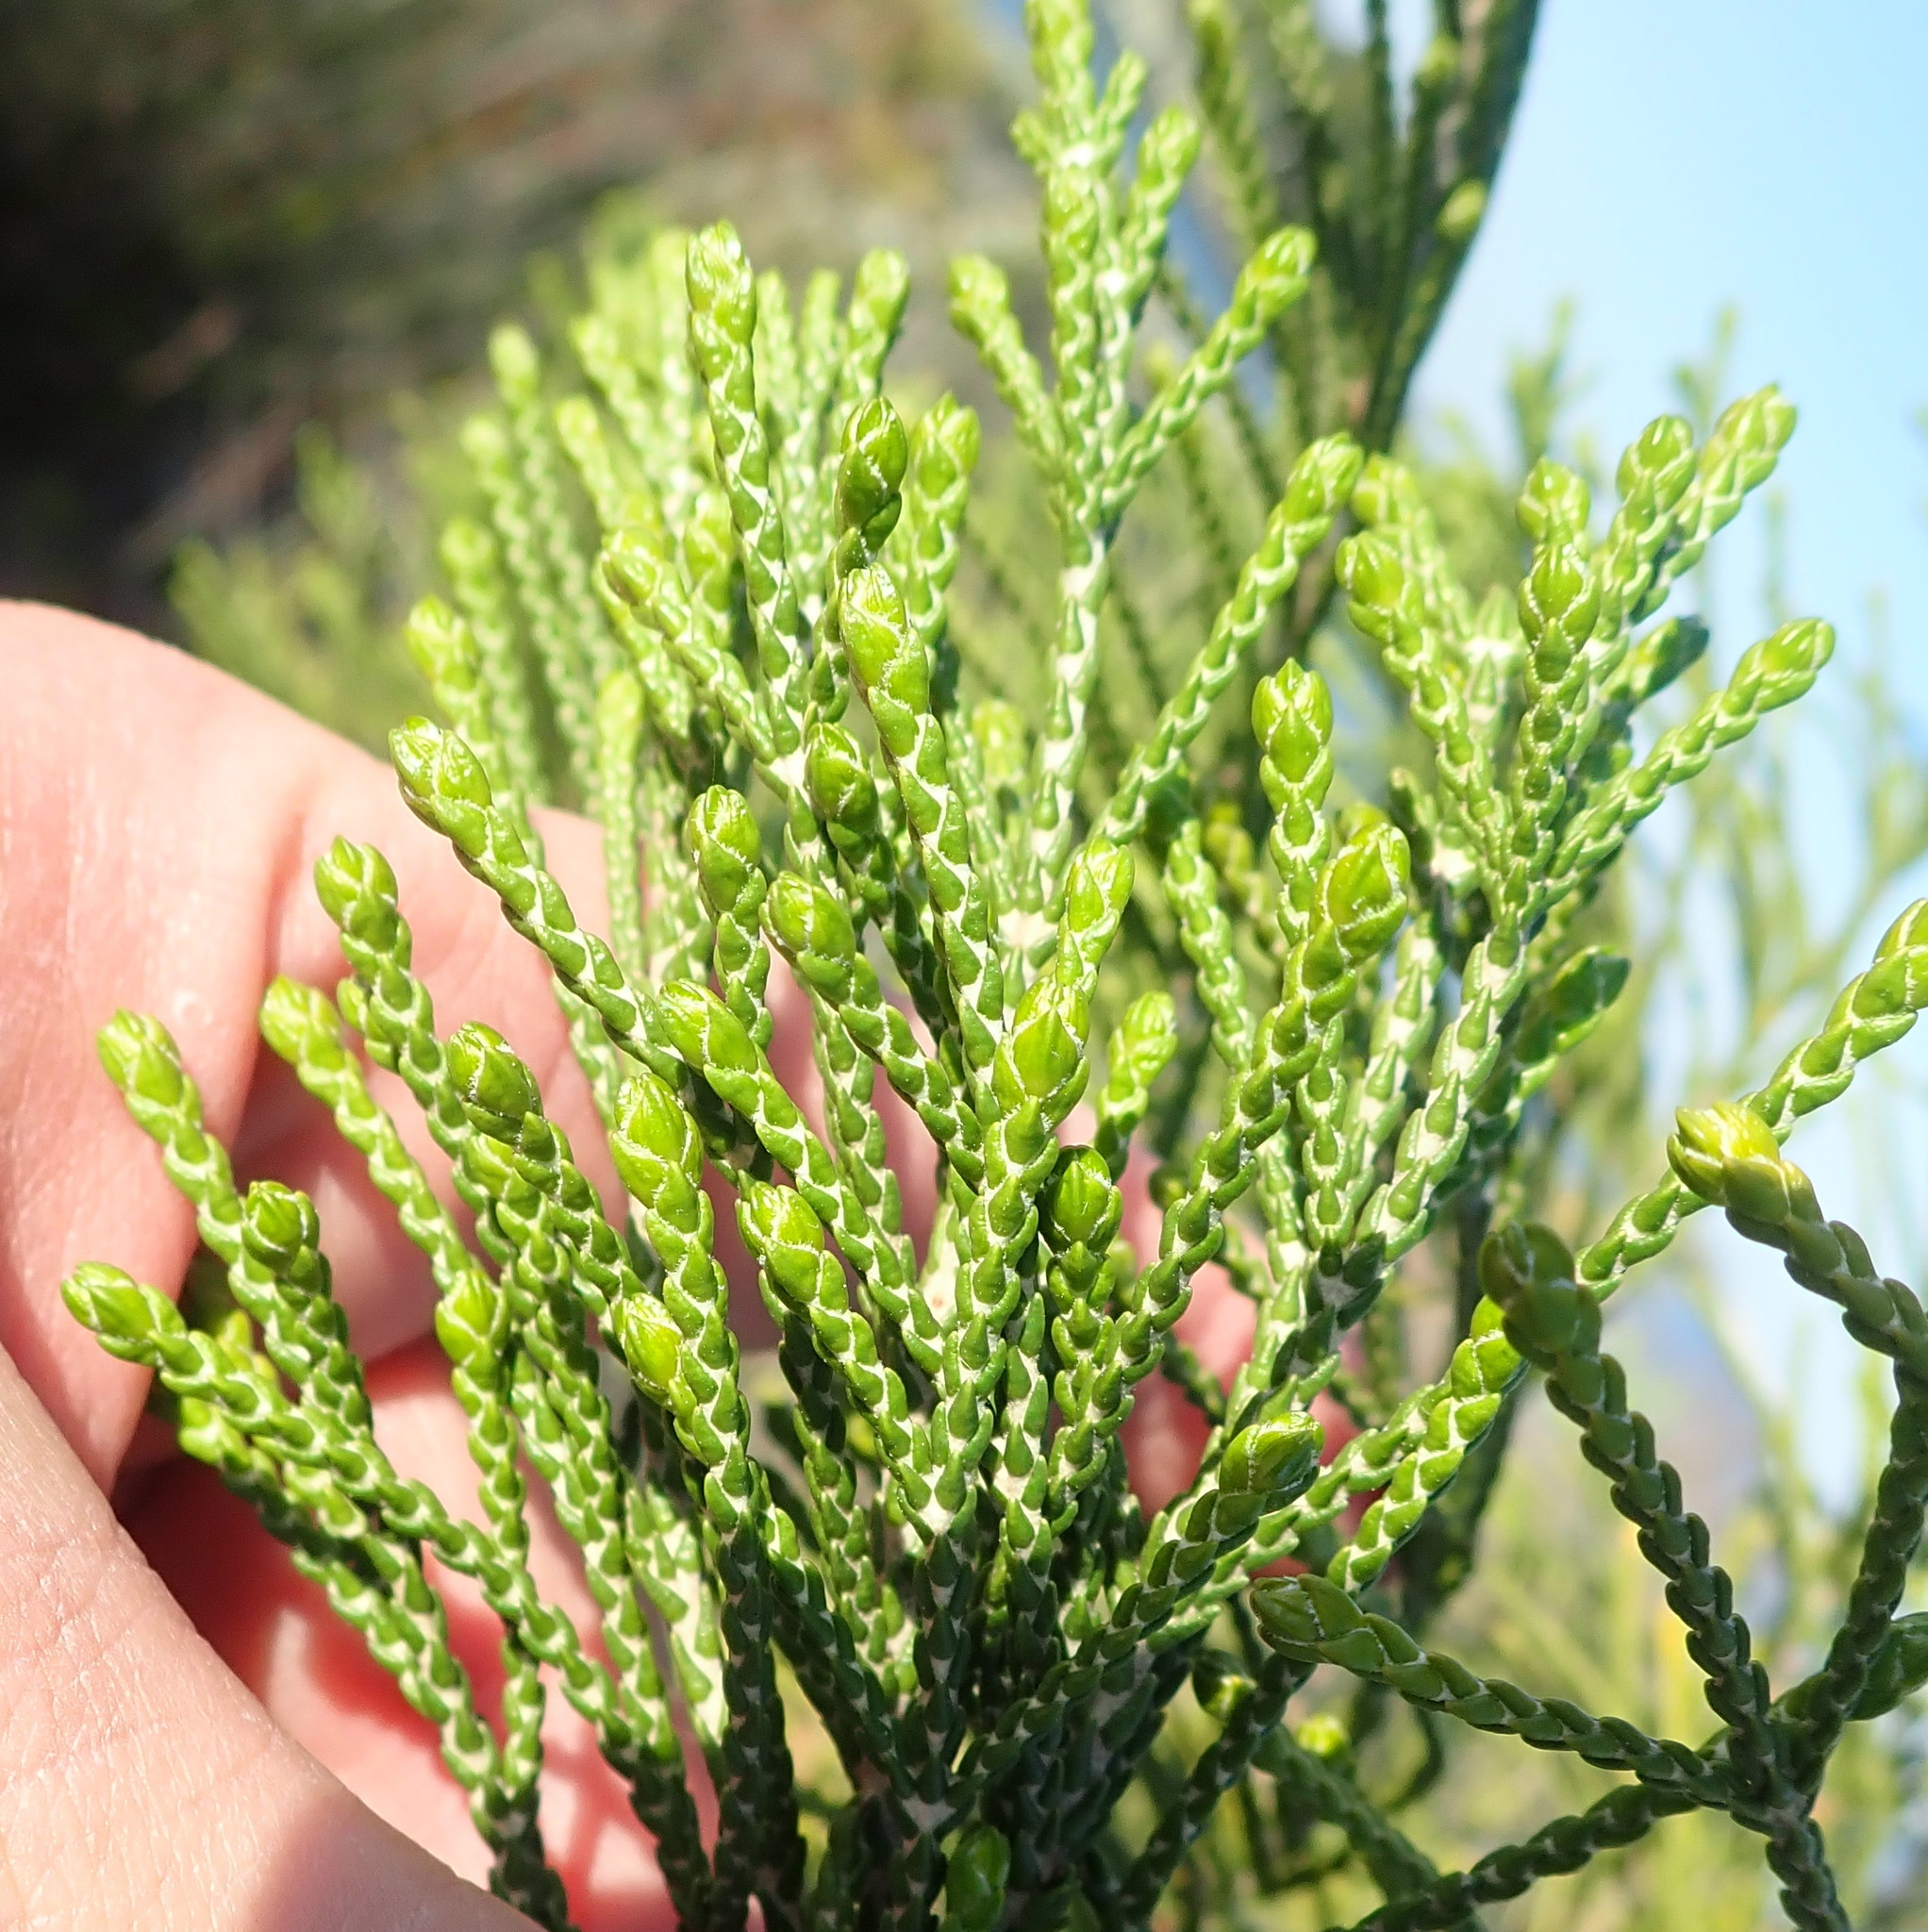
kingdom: Plantae
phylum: Tracheophyta
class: Magnoliopsida
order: Malvales
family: Thymelaeaceae
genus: Passerina
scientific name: Passerina rigida
